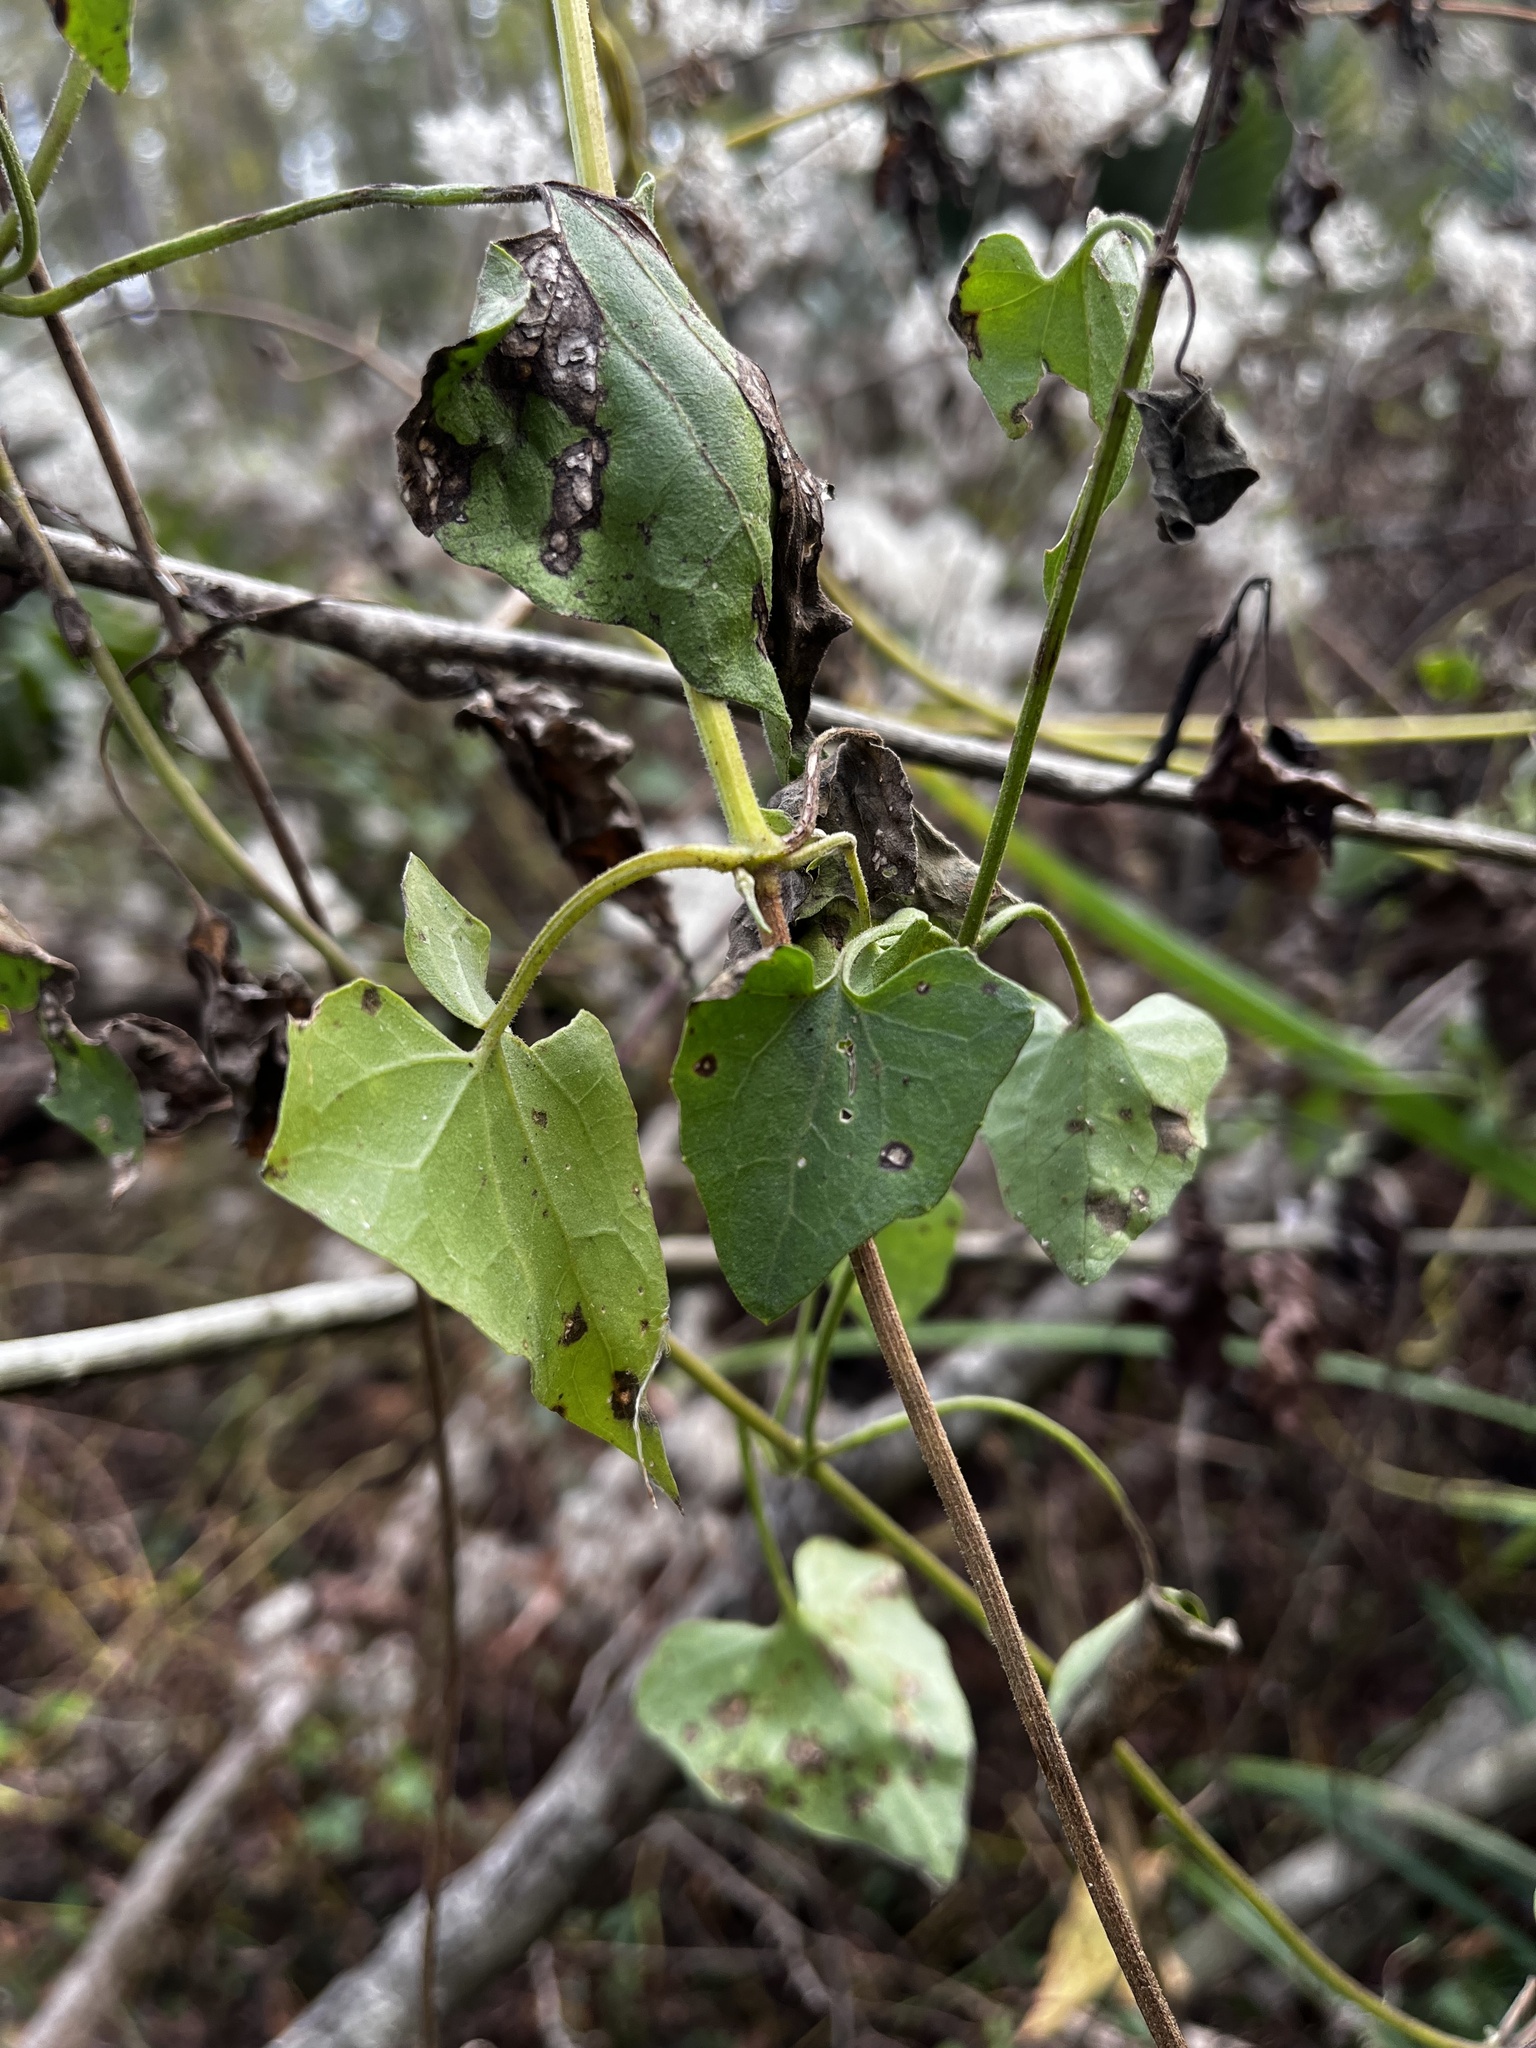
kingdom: Plantae
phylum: Tracheophyta
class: Magnoliopsida
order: Asterales
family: Asteraceae
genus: Mikania
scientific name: Mikania scandens
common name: Climbing hempvine
